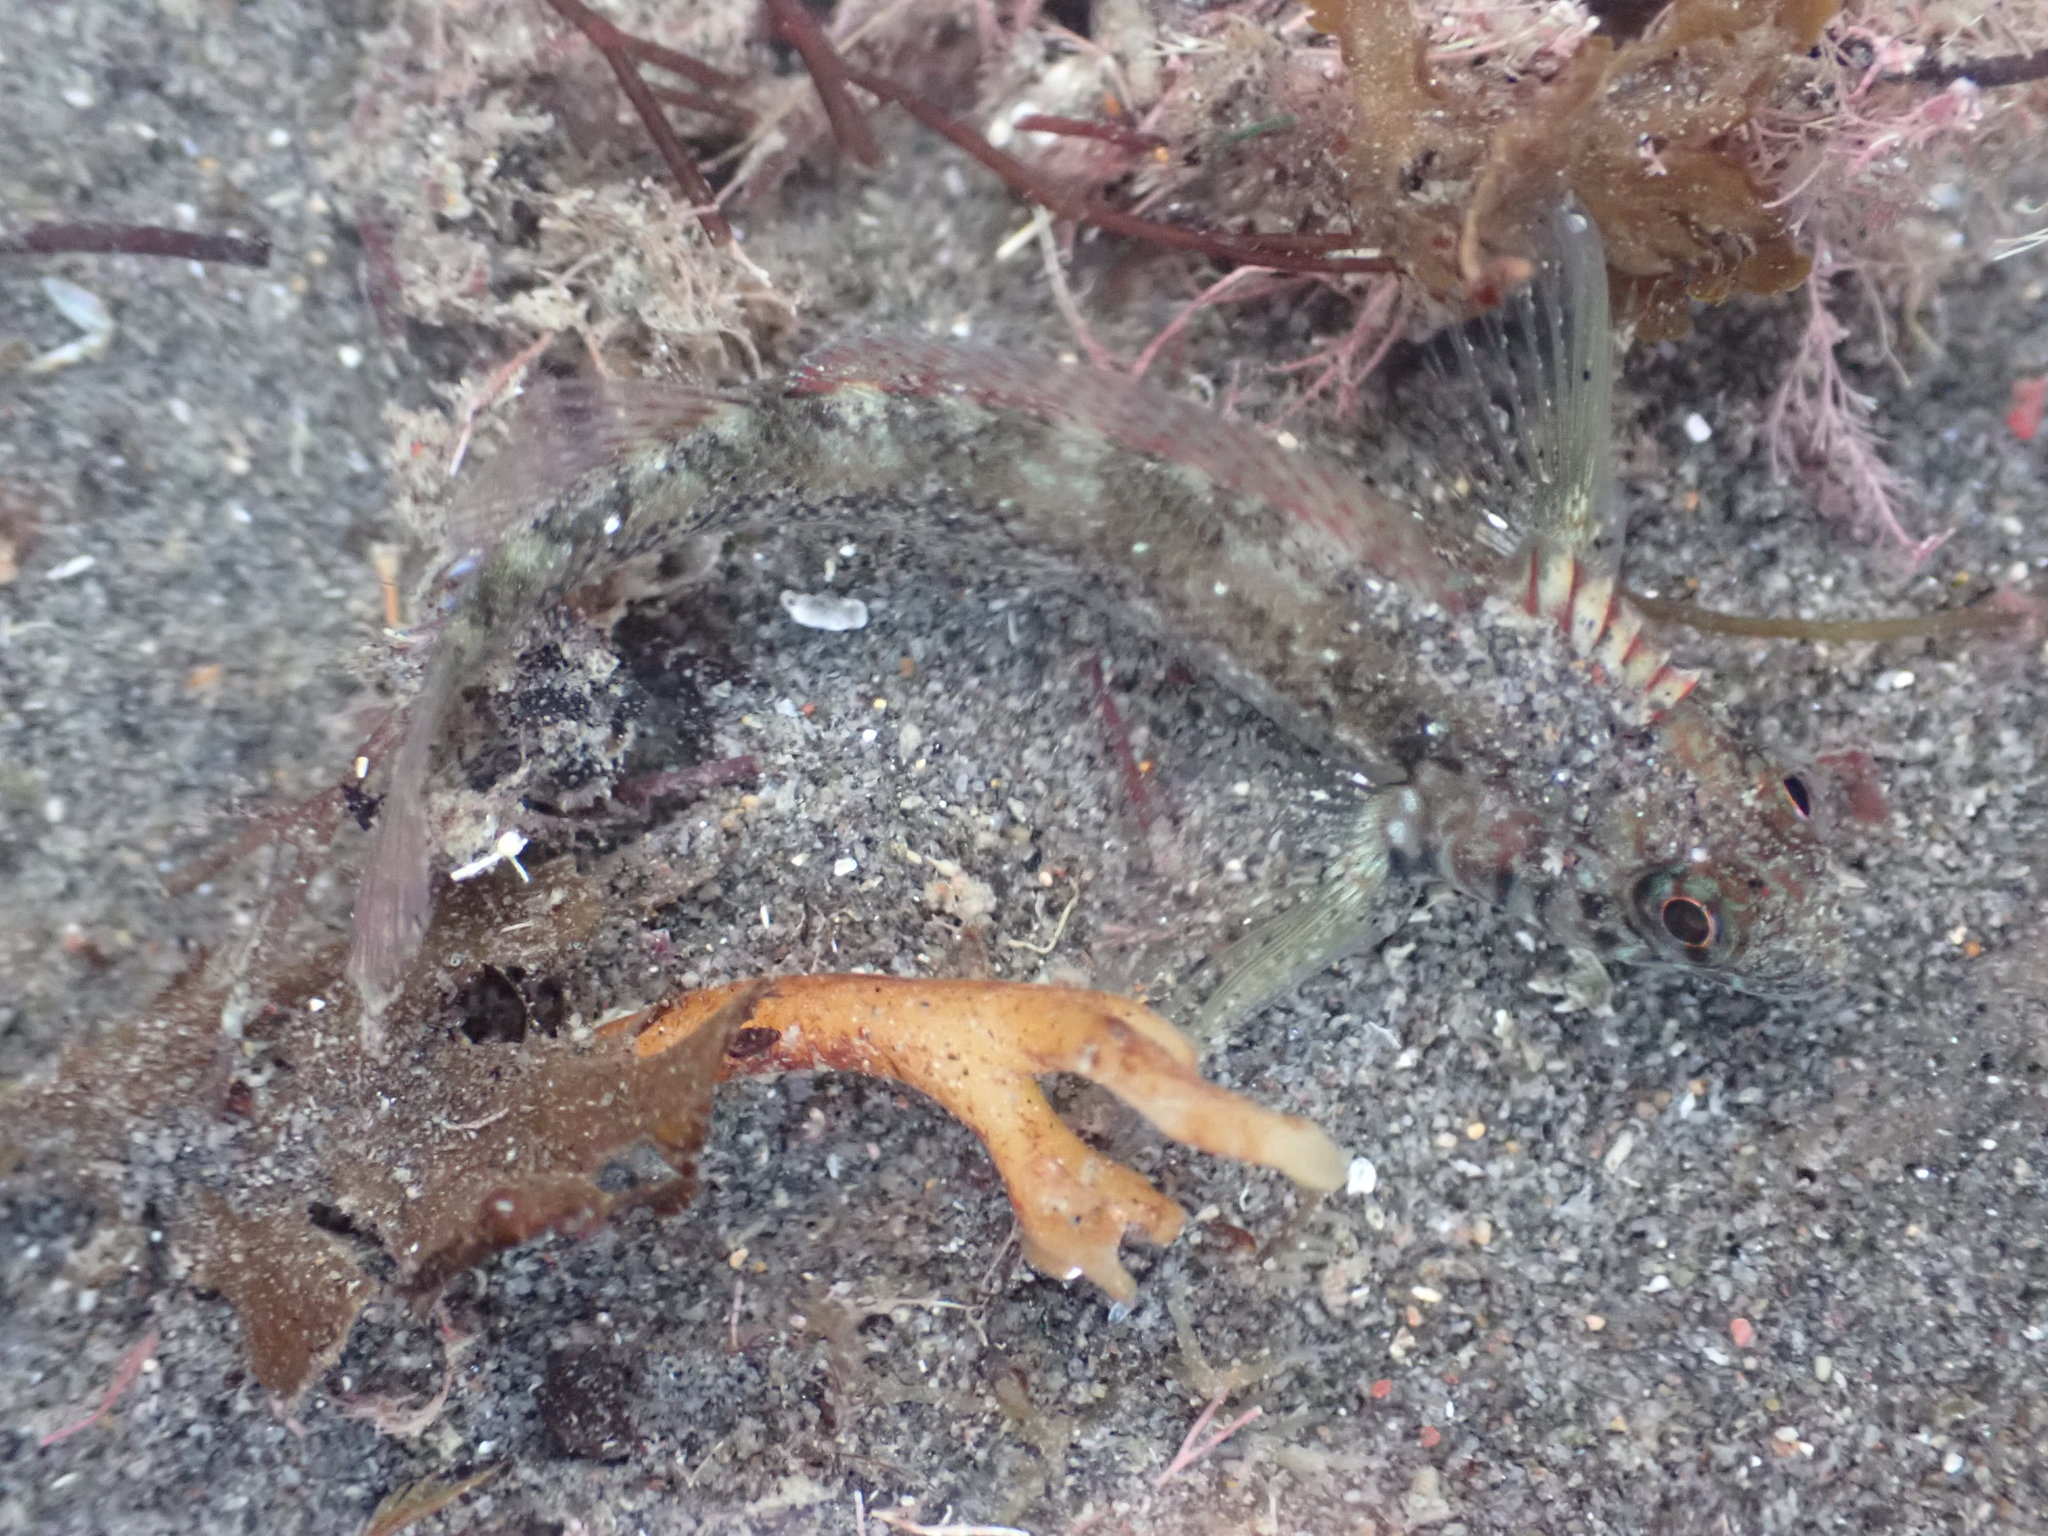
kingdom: Animalia
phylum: Chordata
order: Perciformes
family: Tripterygiidae
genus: Forsterygion
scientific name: Forsterygion lapillum
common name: Common triplefin
